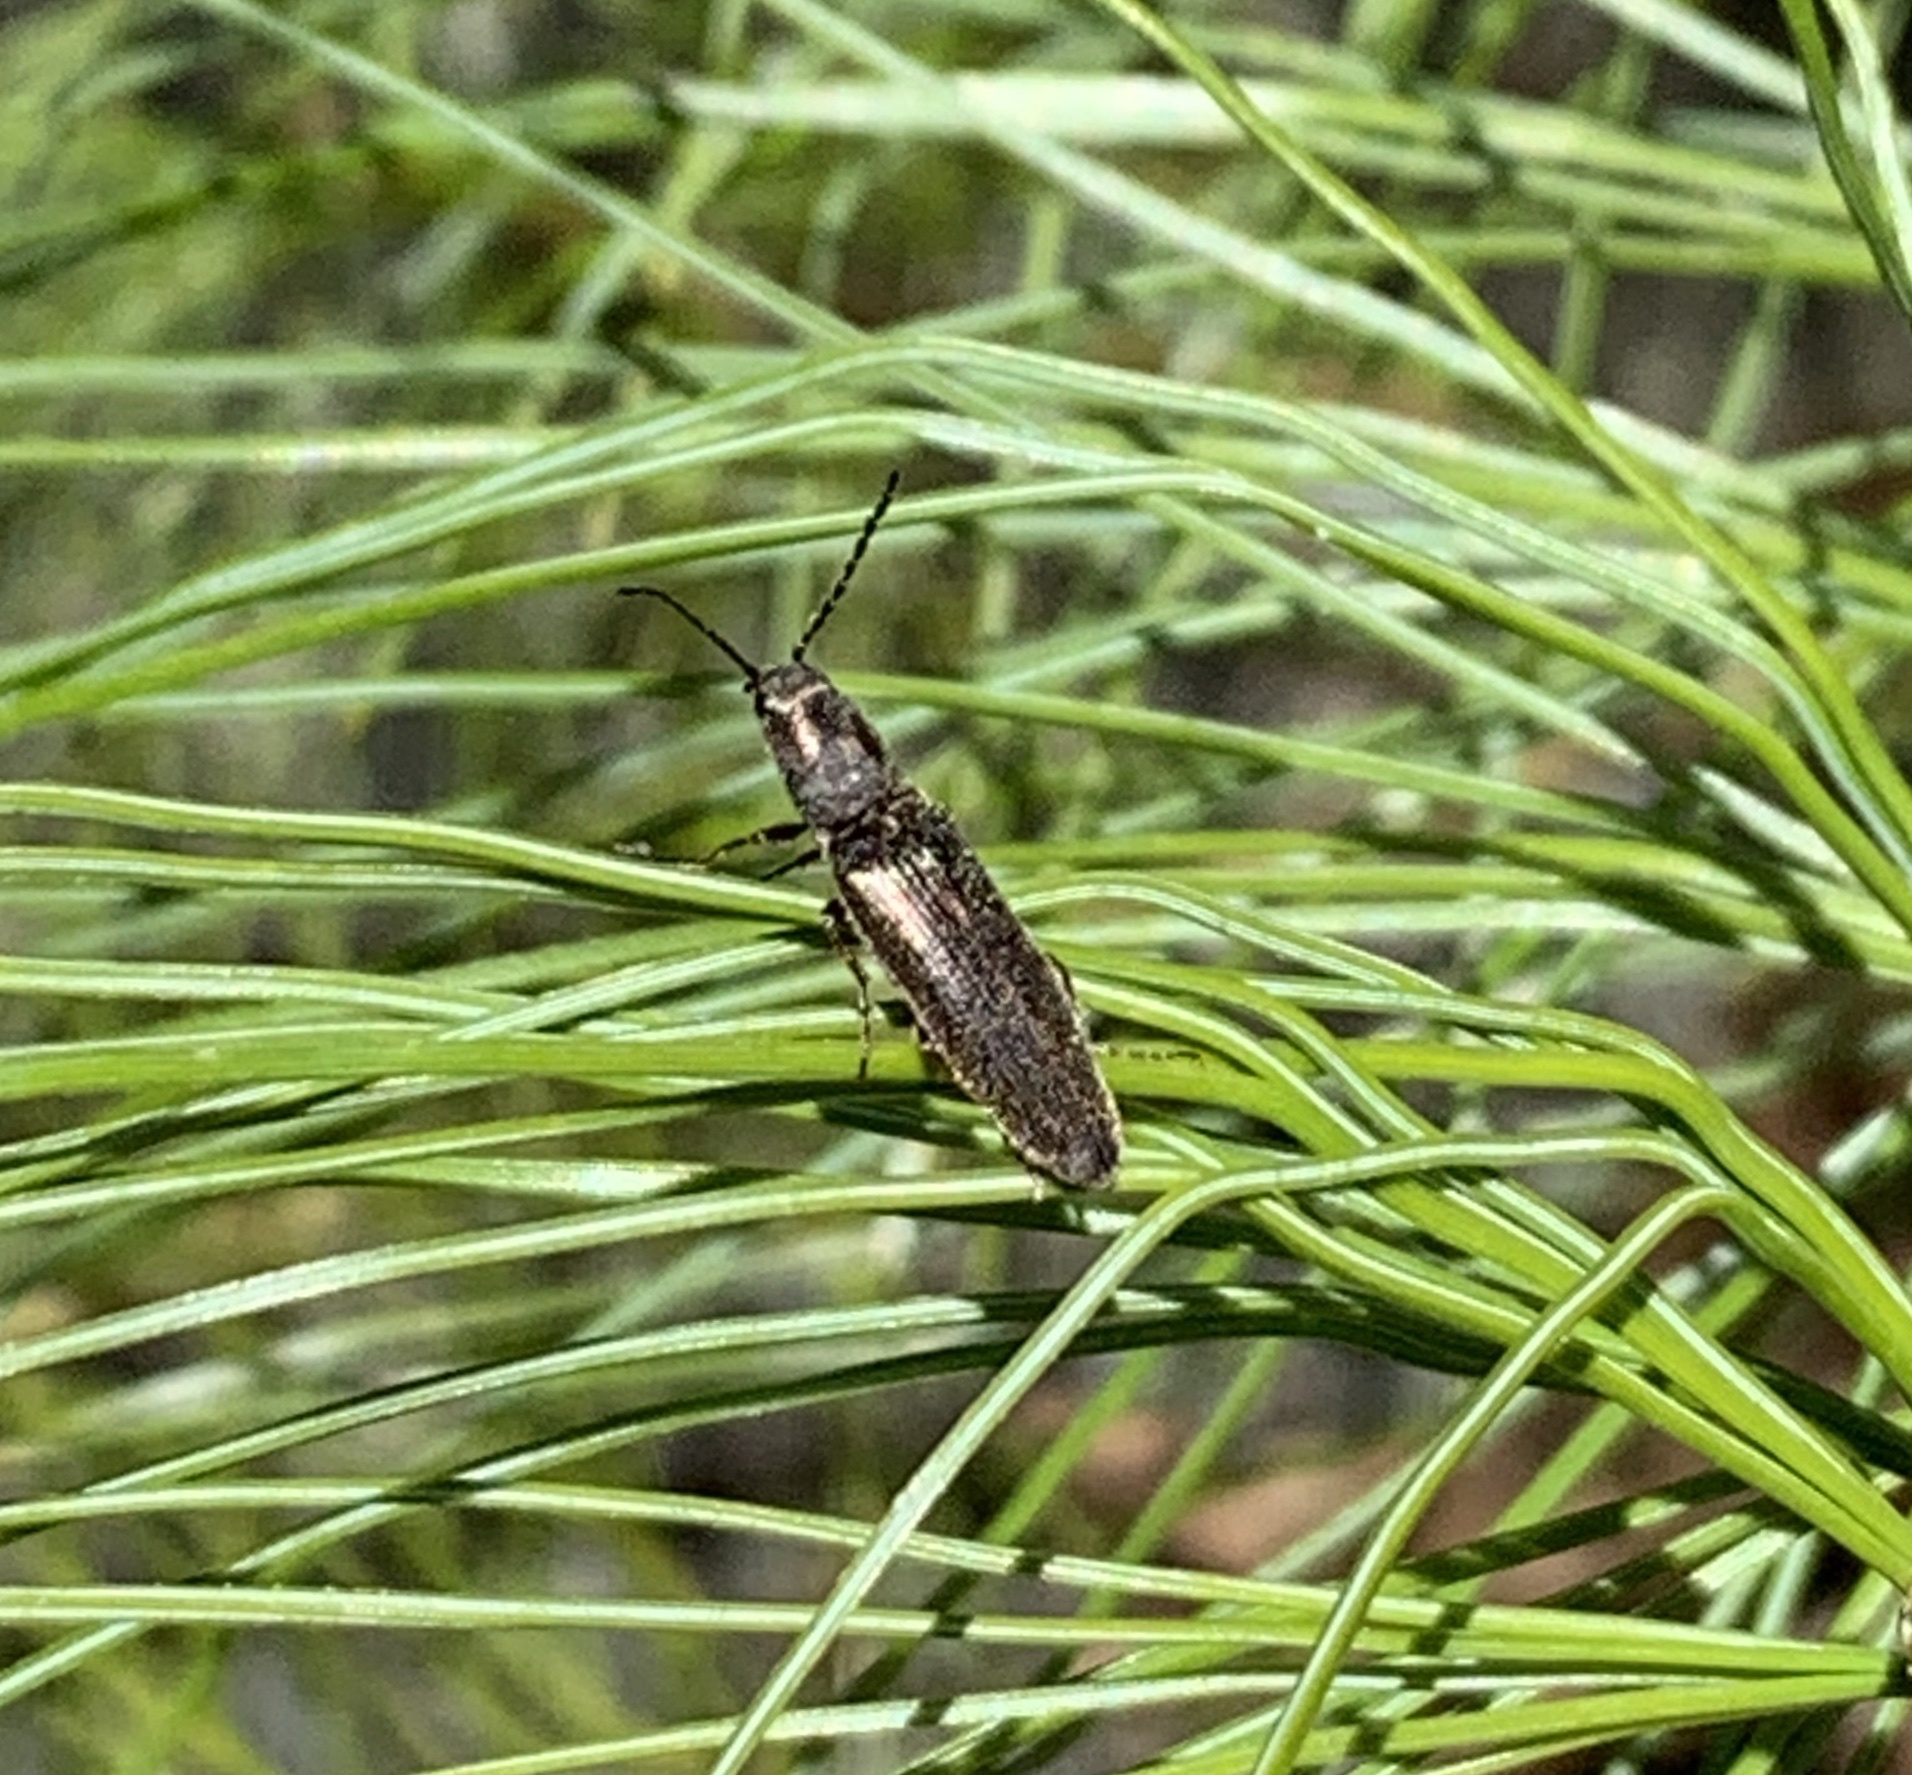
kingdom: Animalia
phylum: Arthropoda
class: Insecta
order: Coleoptera
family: Elateridae
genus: Sylvanelater
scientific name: Sylvanelater cylindriformis
